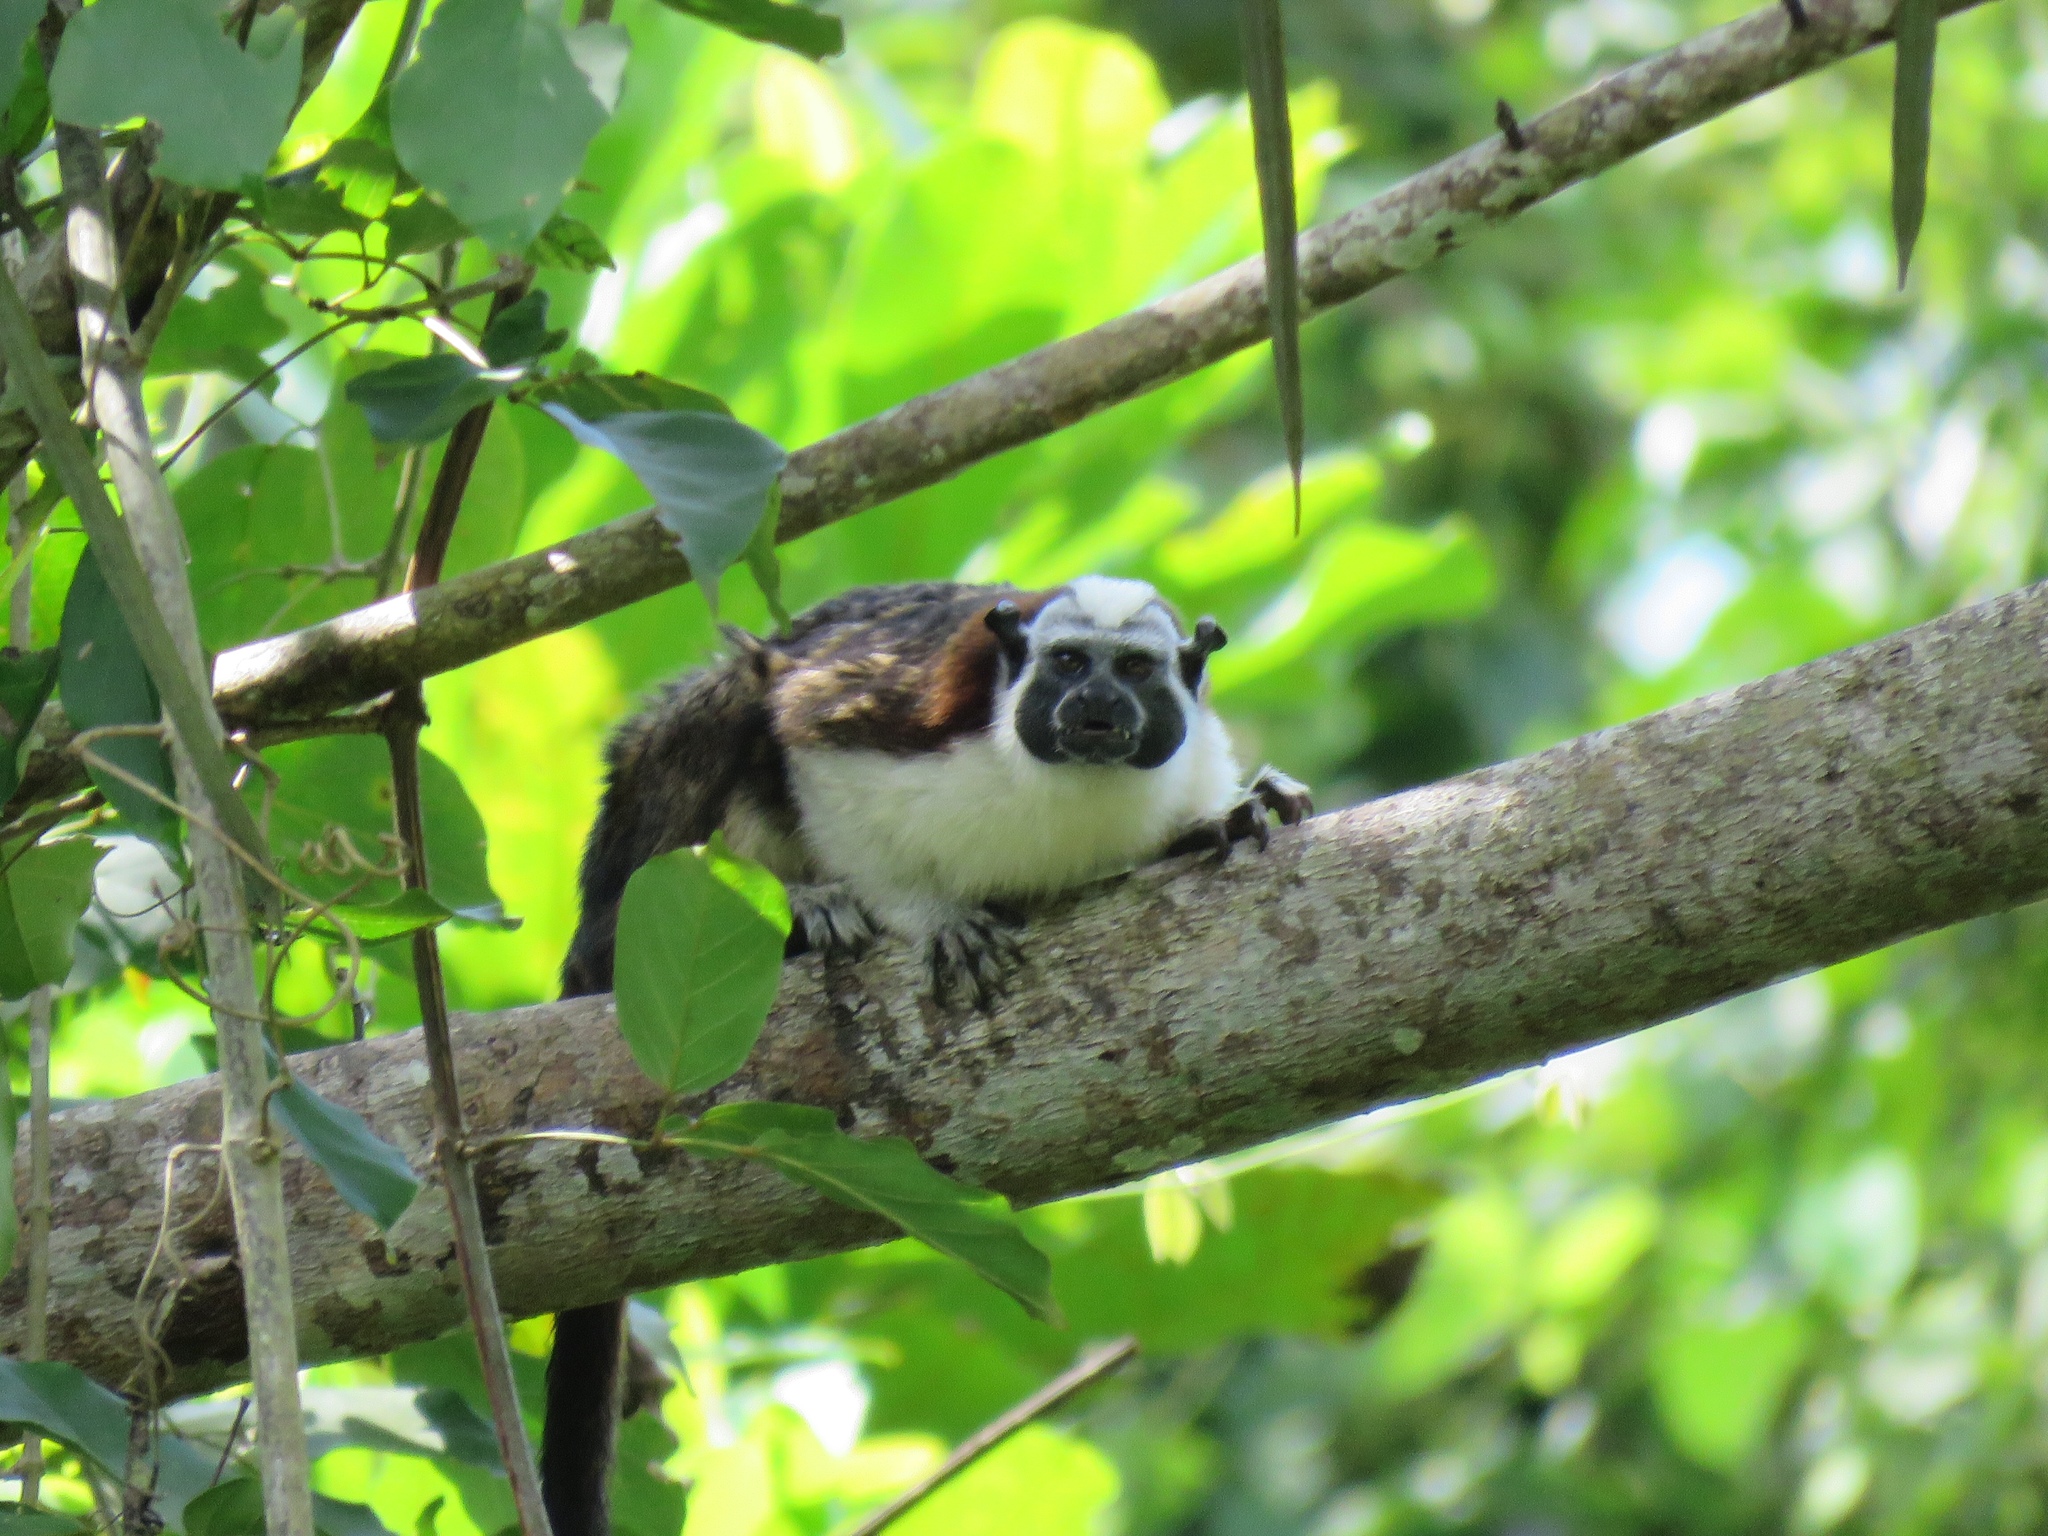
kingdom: Animalia
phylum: Chordata
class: Mammalia
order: Primates
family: Callitrichidae
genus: Saguinus
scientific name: Saguinus geoffroyi
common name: Geoffroy s tamarin
